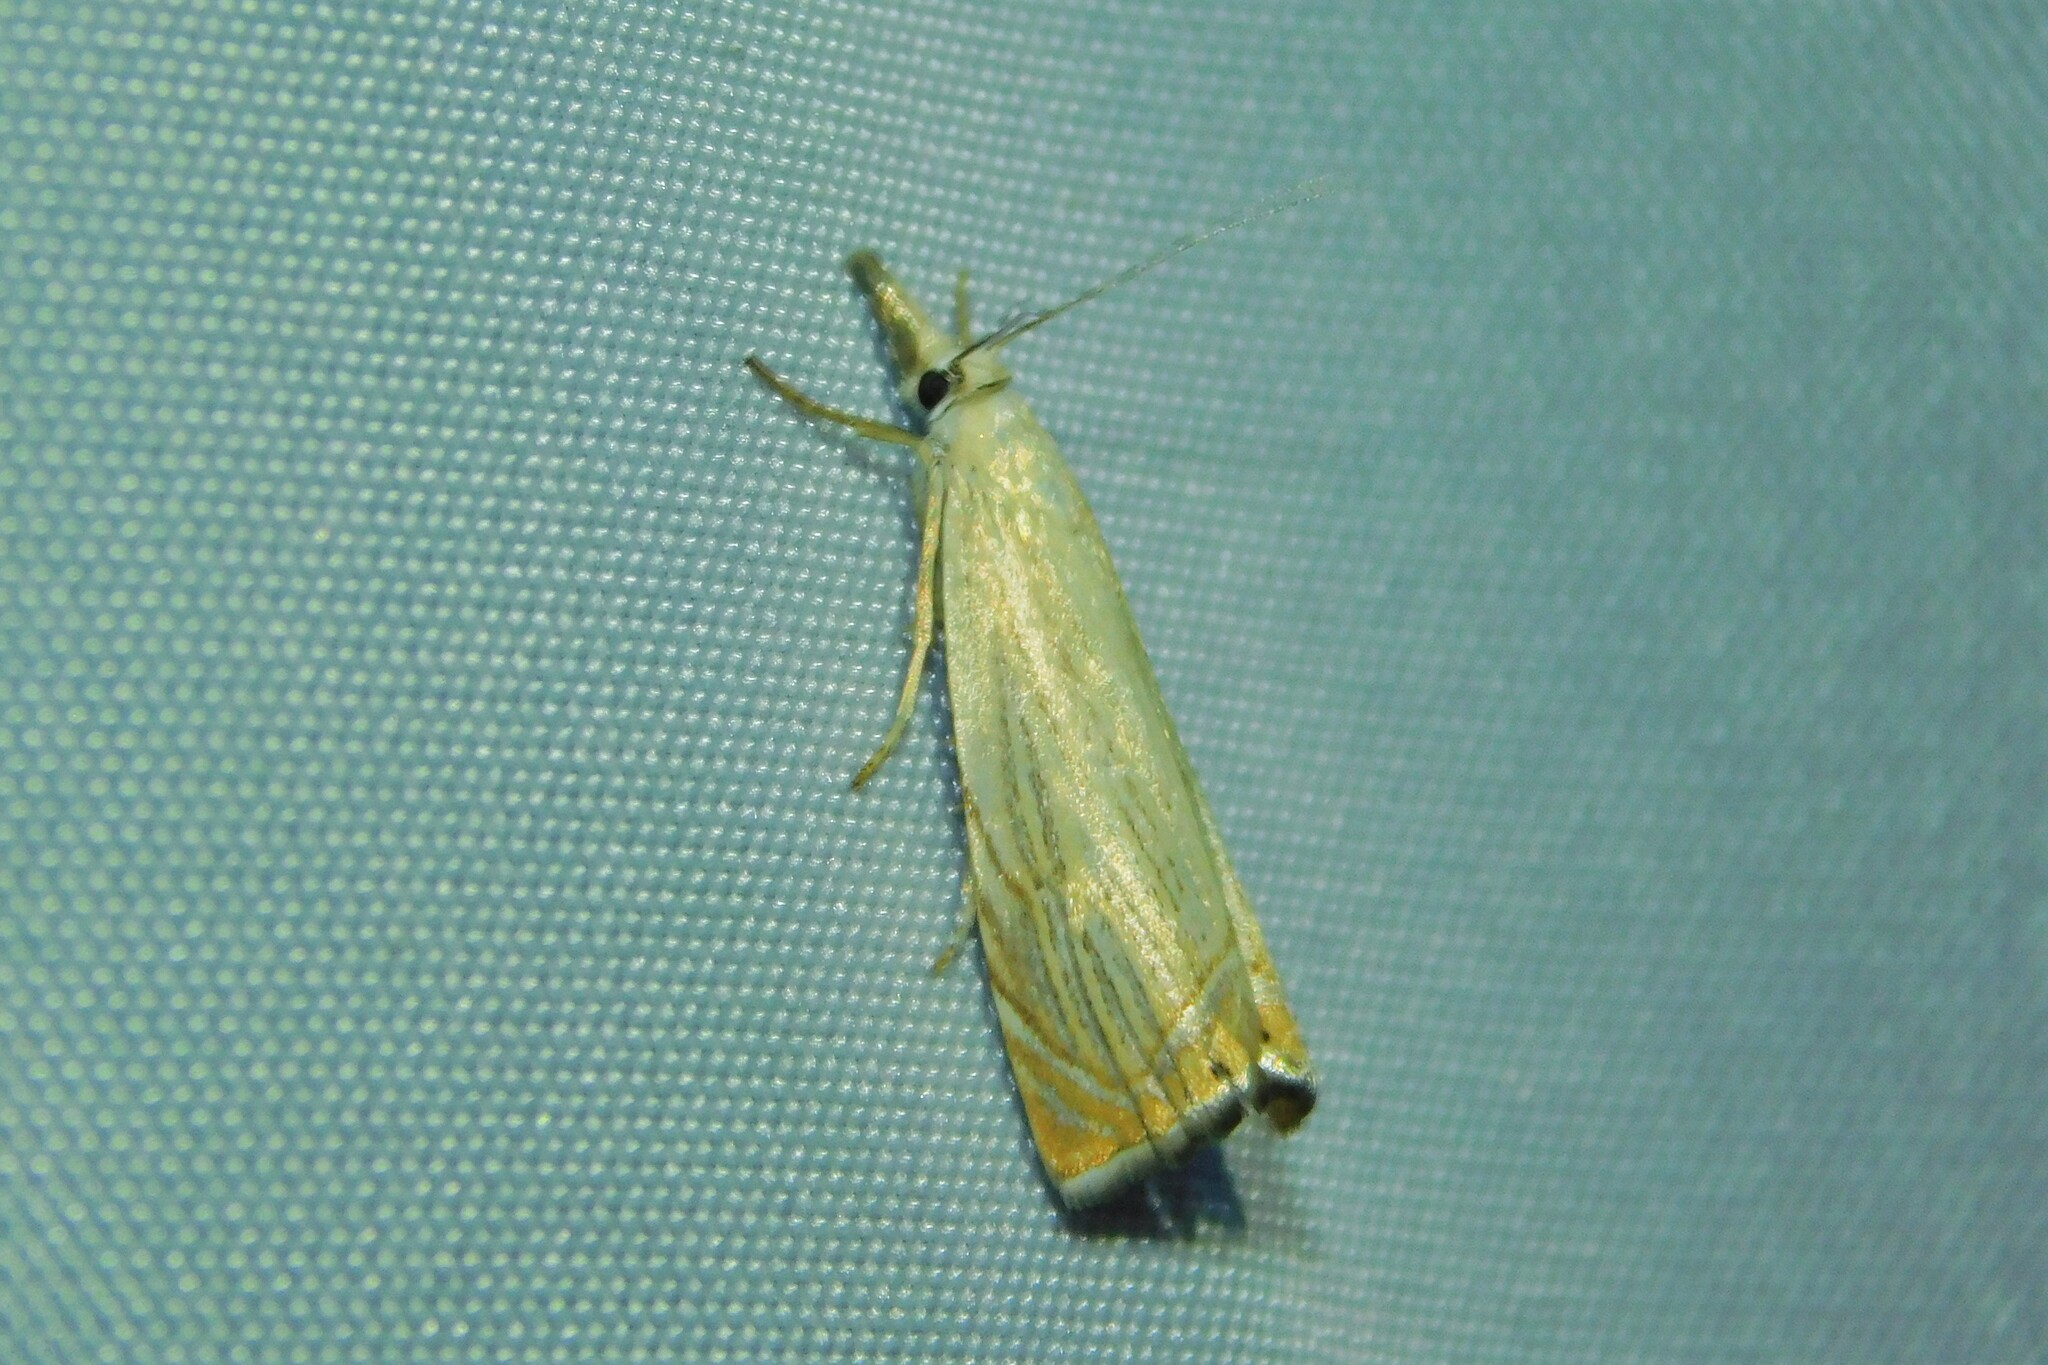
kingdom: Animalia
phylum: Arthropoda
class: Insecta
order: Lepidoptera
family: Crambidae
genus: Chrysoteuchia
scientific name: Chrysoteuchia culmella
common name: Garden grass-veneer
